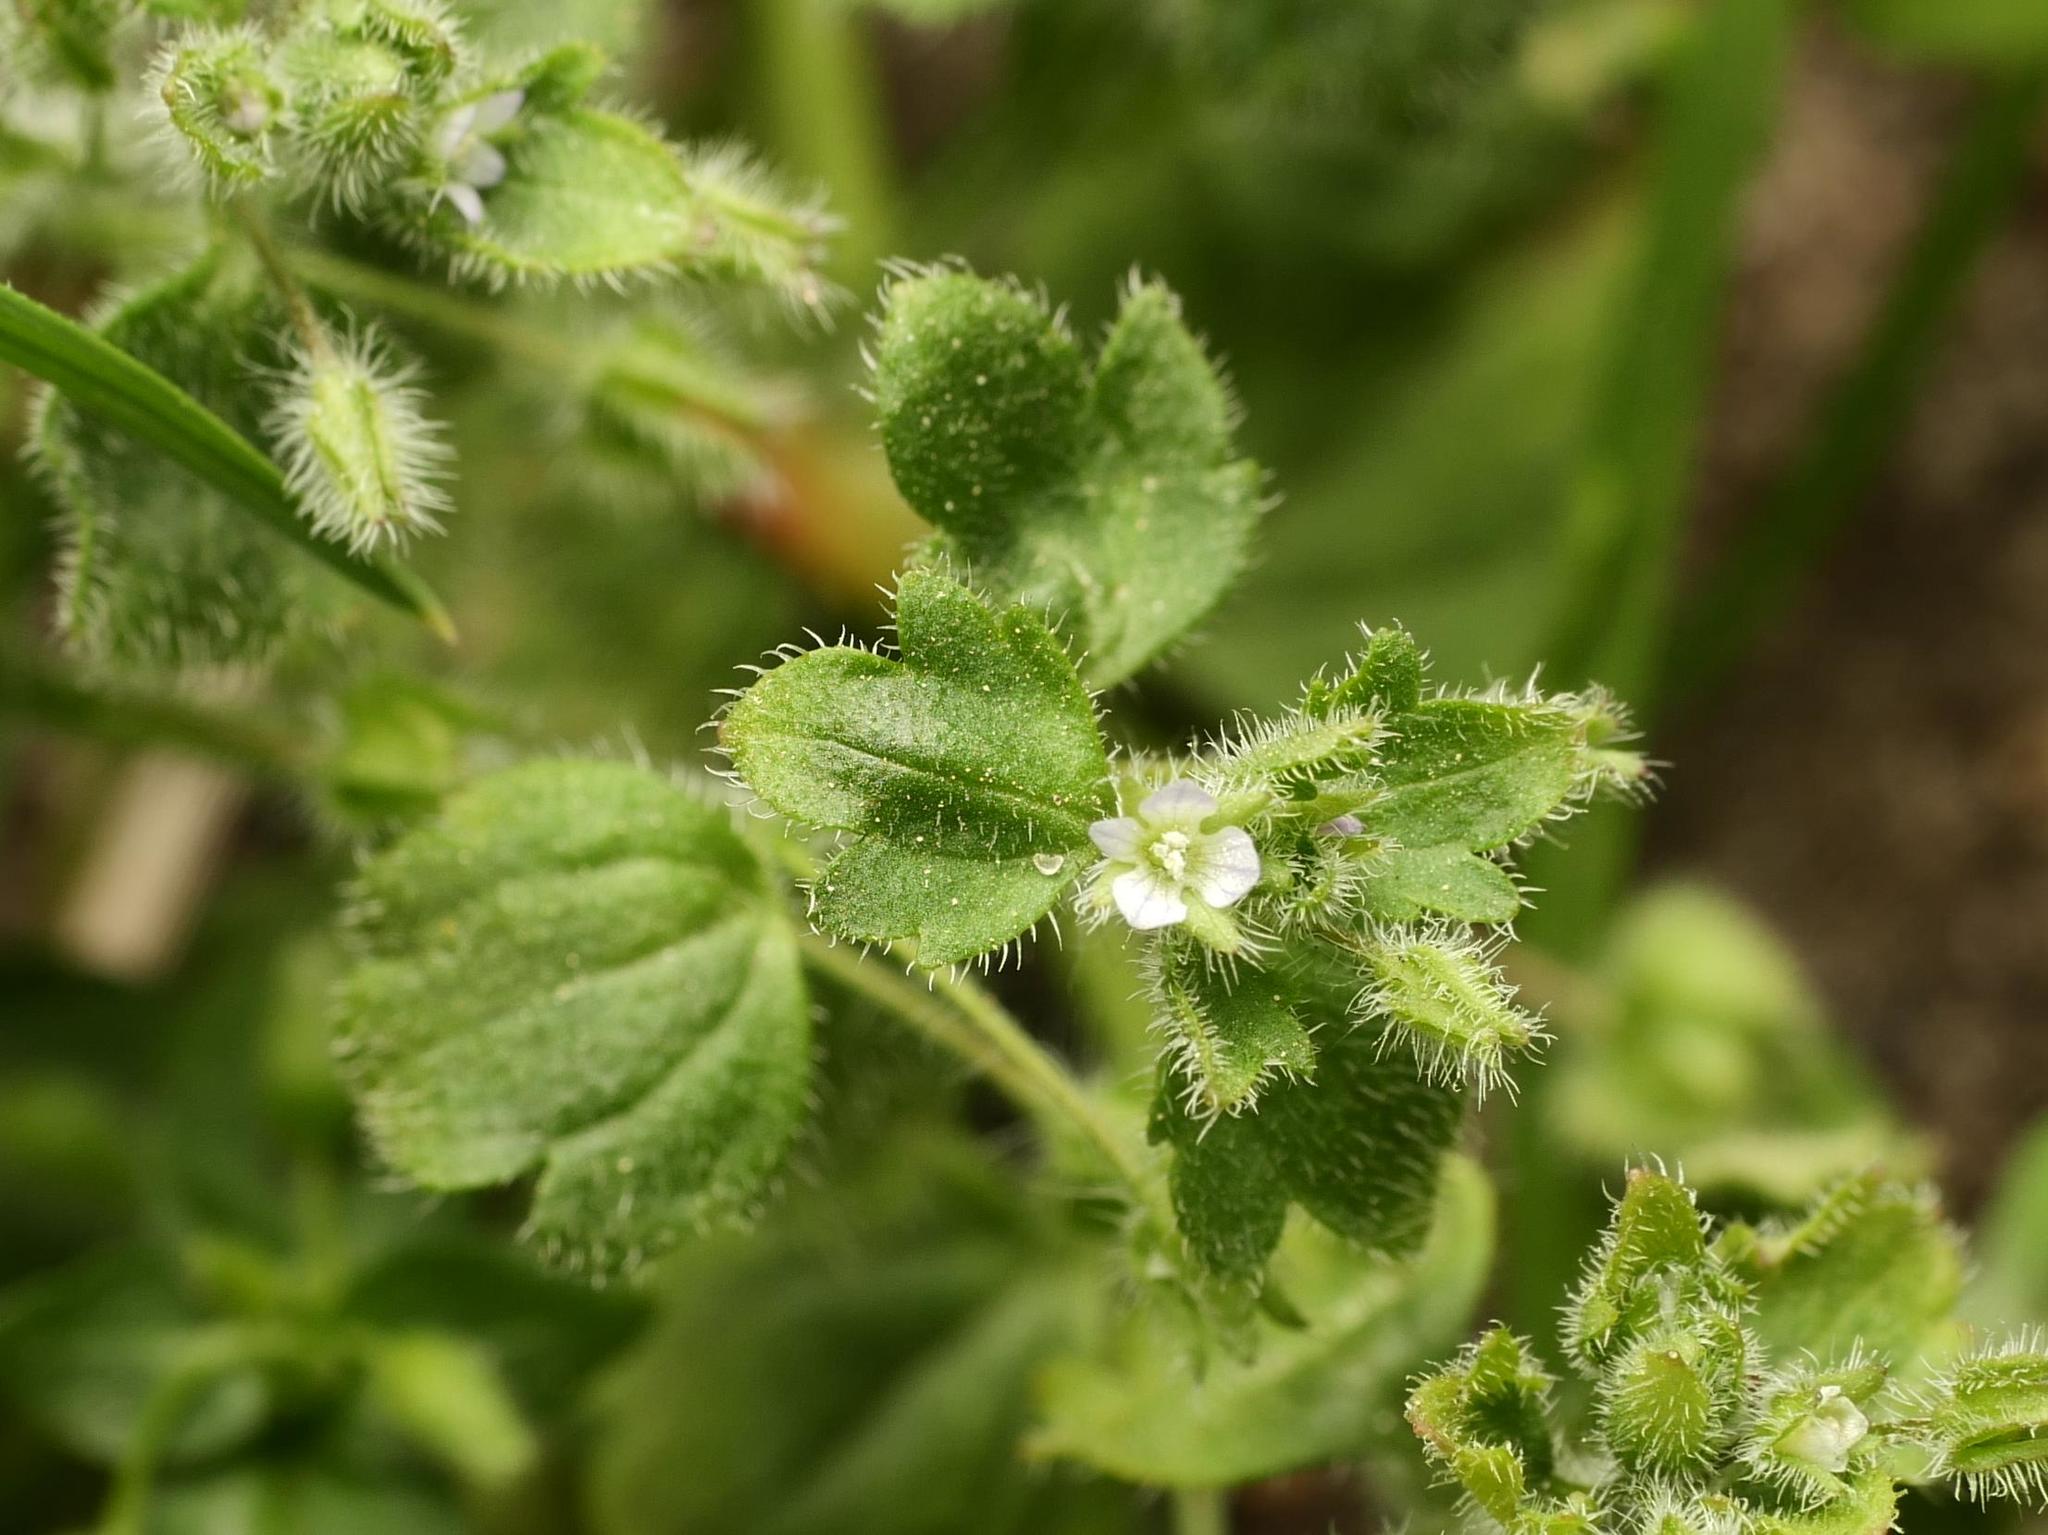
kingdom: Plantae
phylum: Tracheophyta
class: Magnoliopsida
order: Lamiales
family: Plantaginaceae
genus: Veronica
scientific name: Veronica sublobata
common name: False ivy-leaved speedwell
